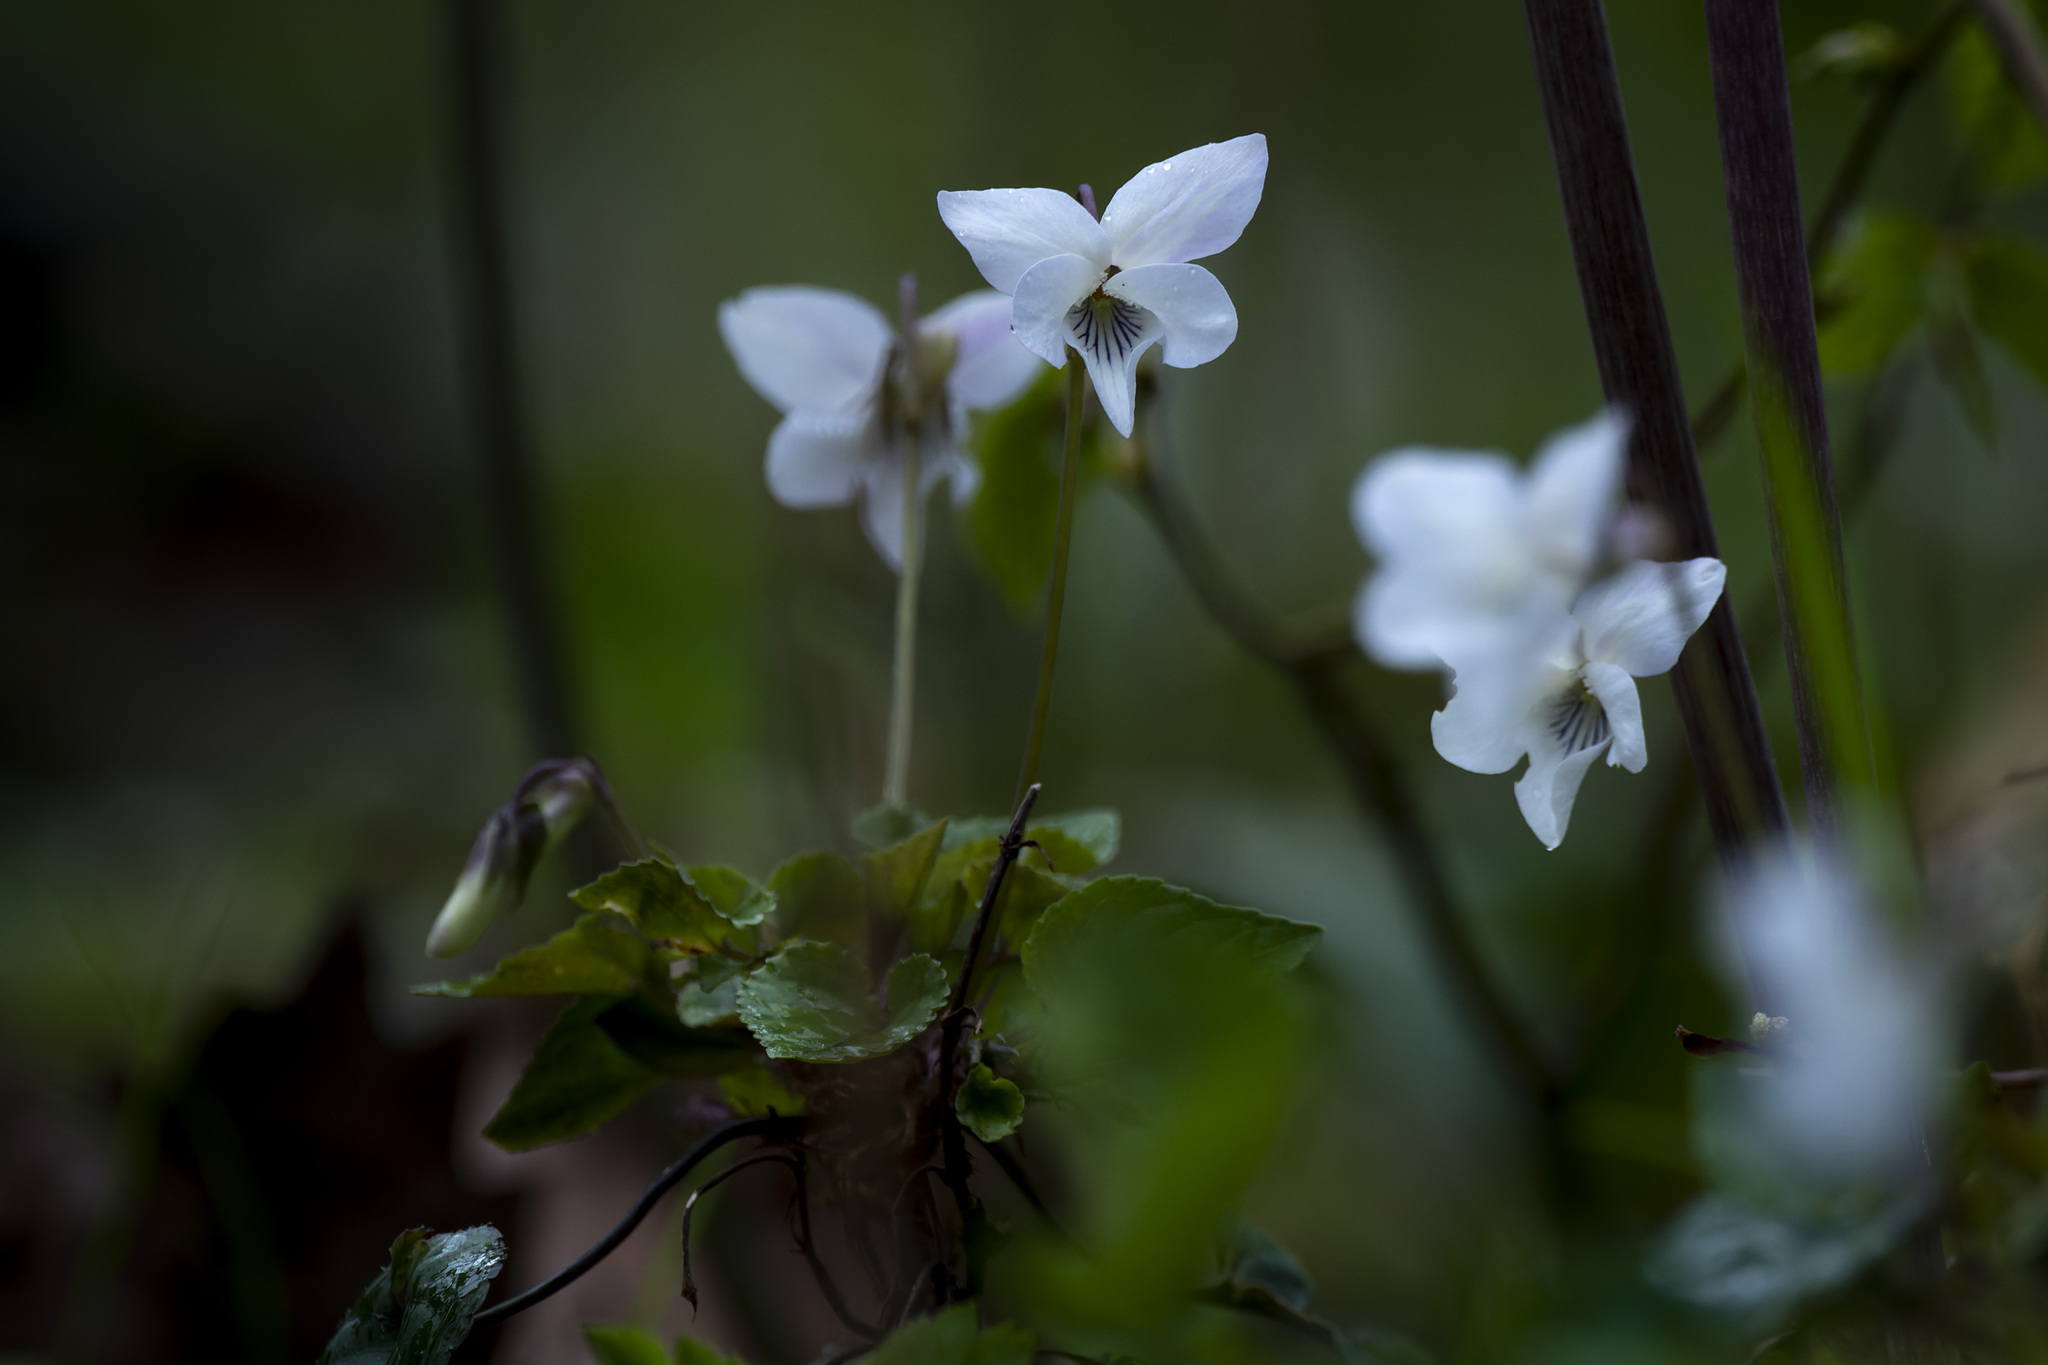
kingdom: Plantae
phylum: Tracheophyta
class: Magnoliopsida
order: Malpighiales
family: Violaceae
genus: Viola
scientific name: Viola alba
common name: White violet
